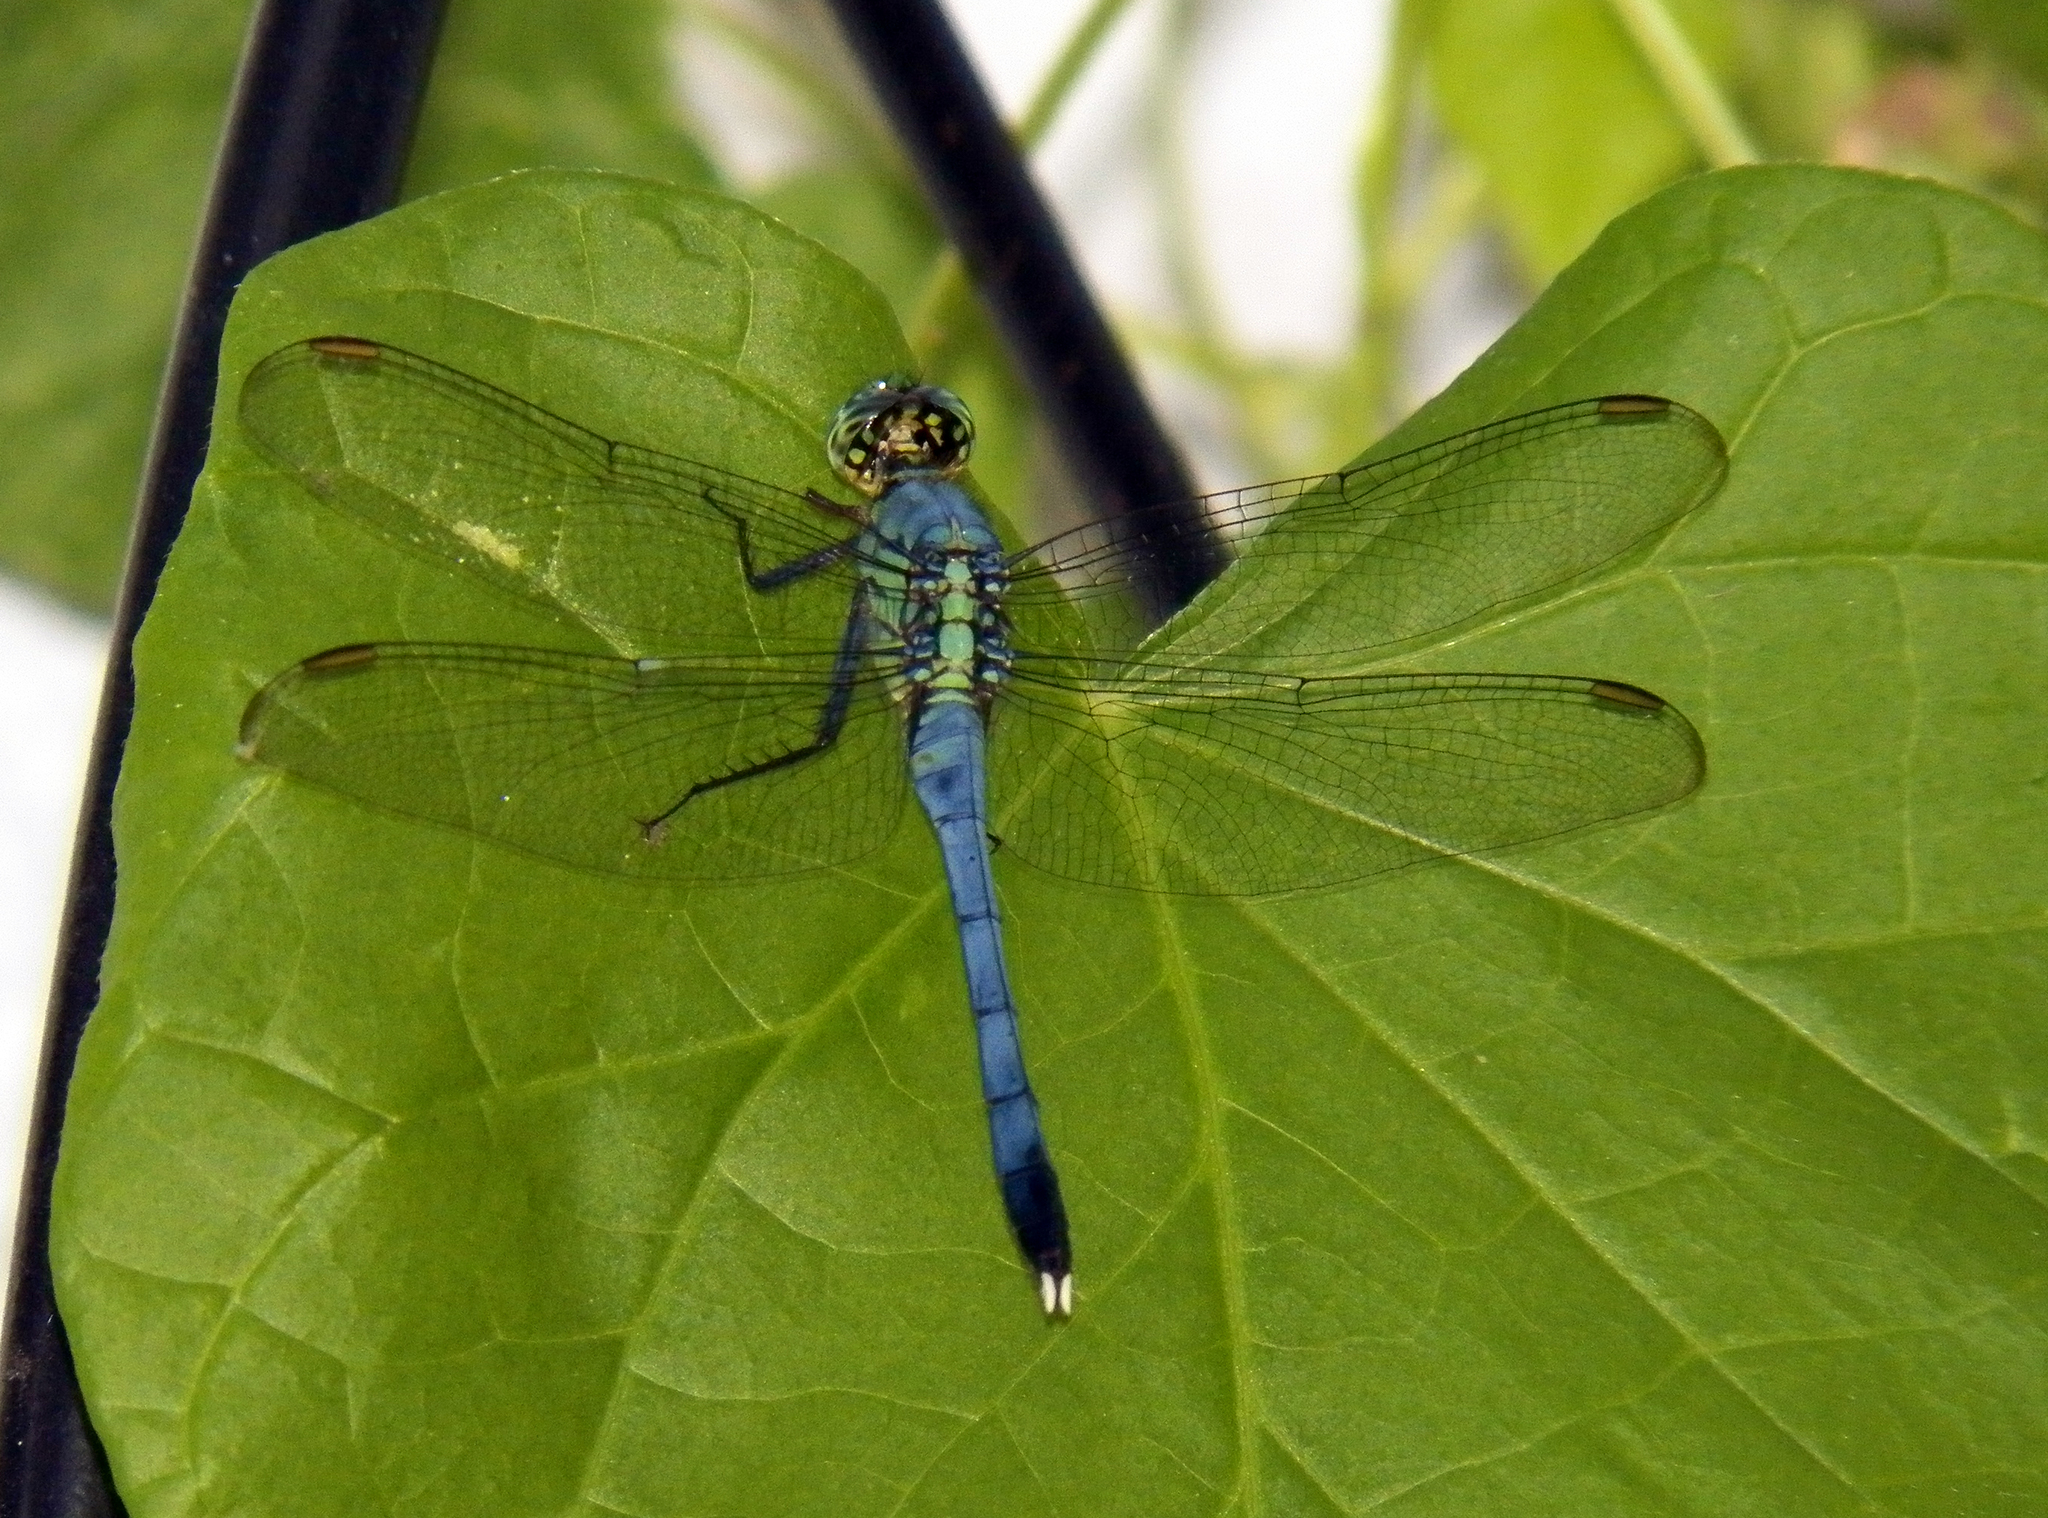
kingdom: Animalia
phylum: Arthropoda
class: Insecta
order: Odonata
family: Libellulidae
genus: Erythemis
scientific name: Erythemis simplicicollis
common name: Eastern pondhawk
